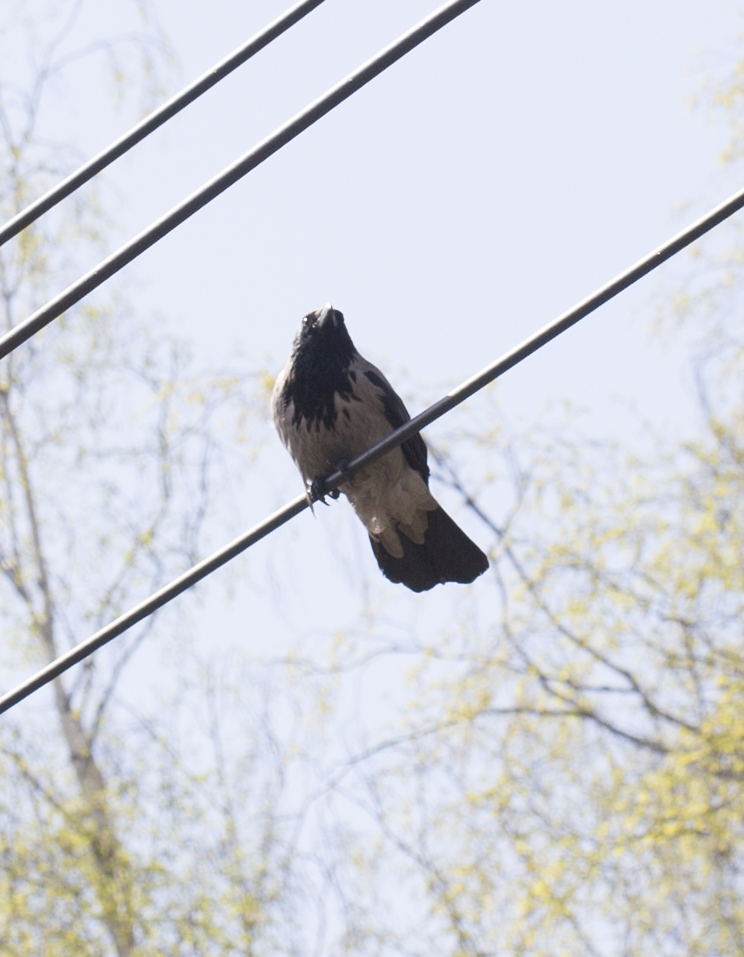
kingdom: Animalia
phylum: Chordata
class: Aves
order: Passeriformes
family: Corvidae
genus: Corvus
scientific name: Corvus cornix
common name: Hooded crow
